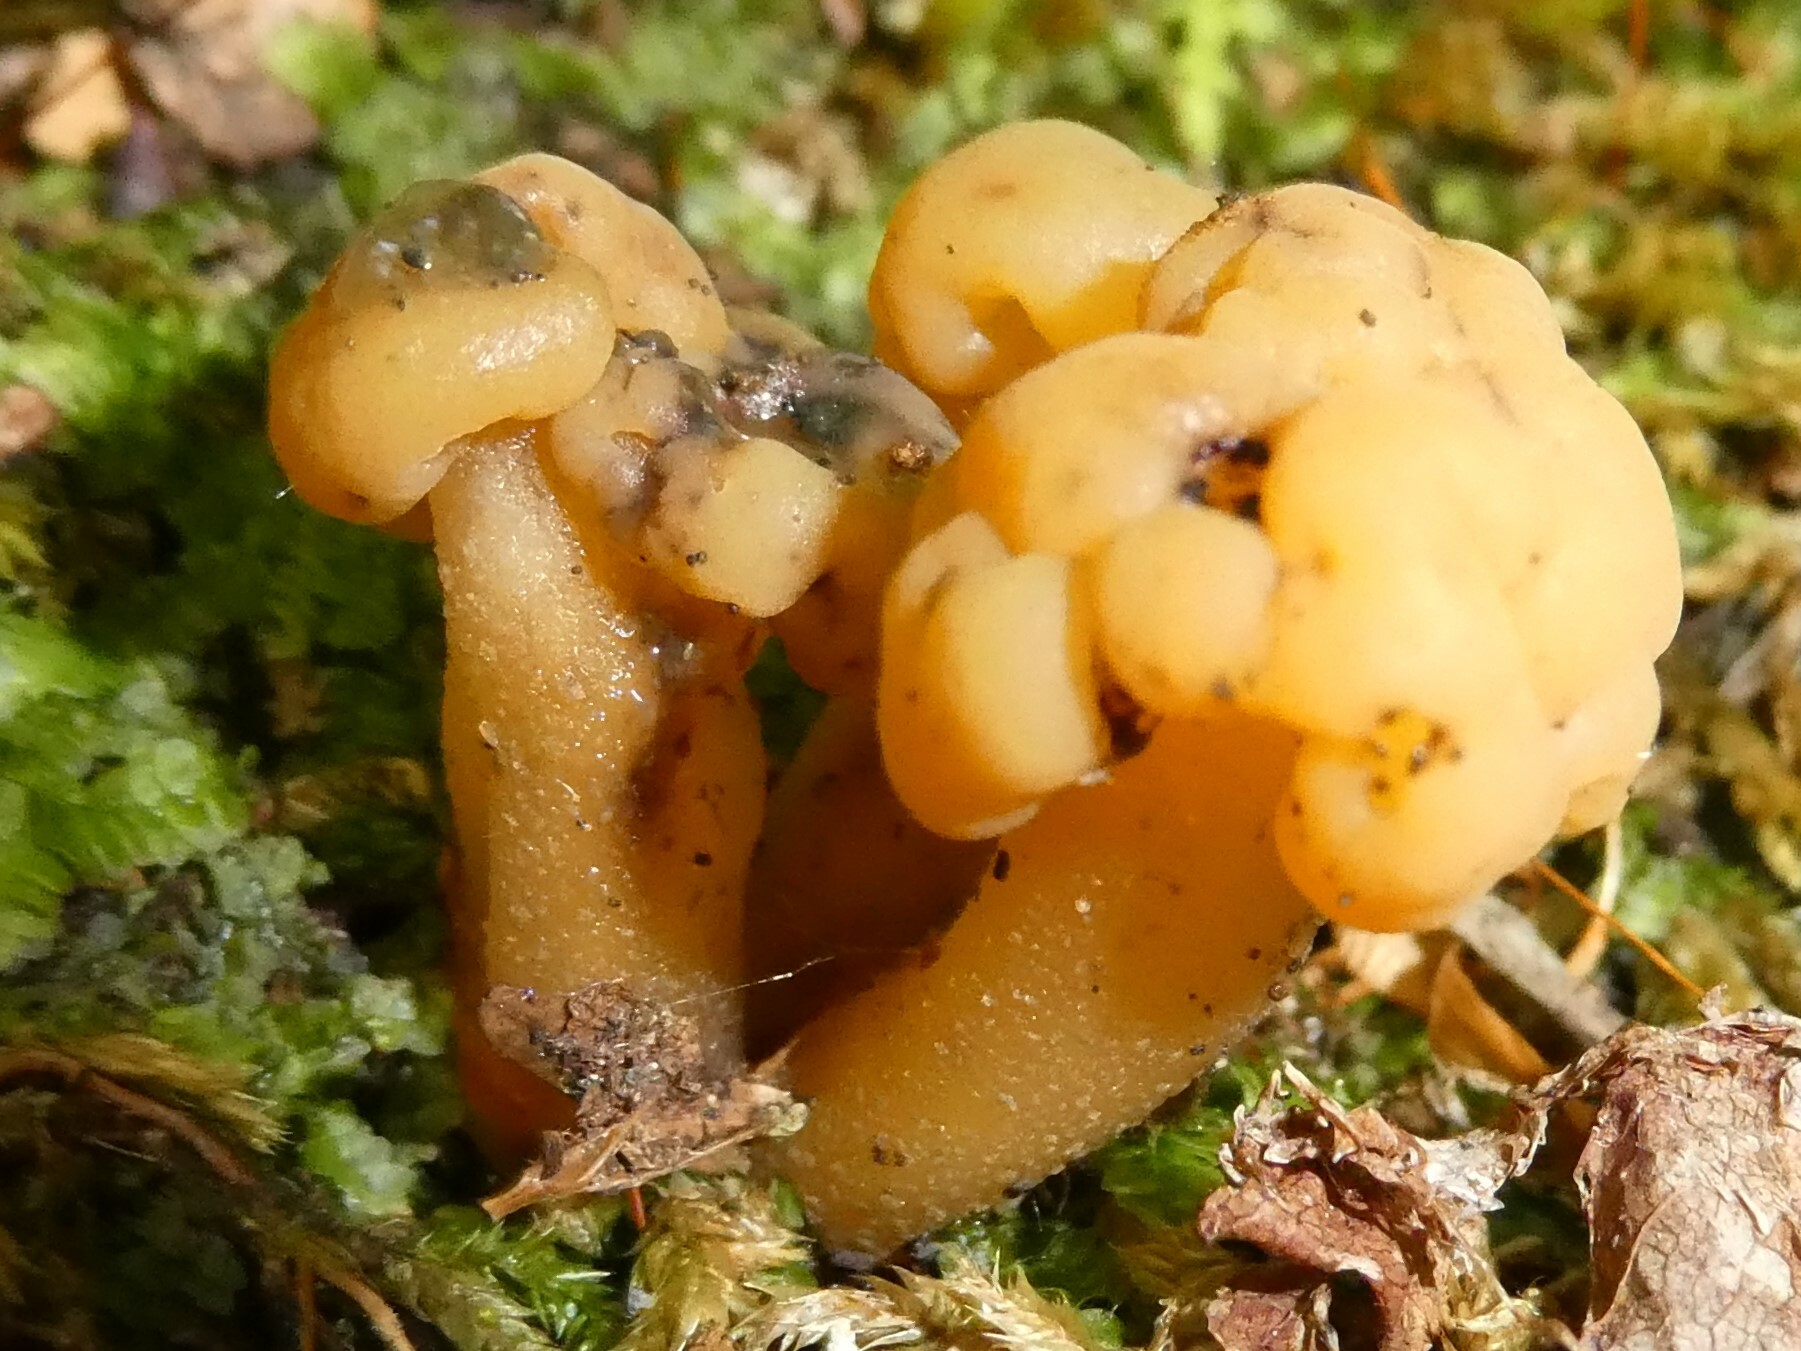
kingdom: Fungi
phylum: Ascomycota
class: Leotiomycetes
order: Leotiales
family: Leotiaceae
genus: Leotia
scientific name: Leotia lubrica
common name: Jellybaby
